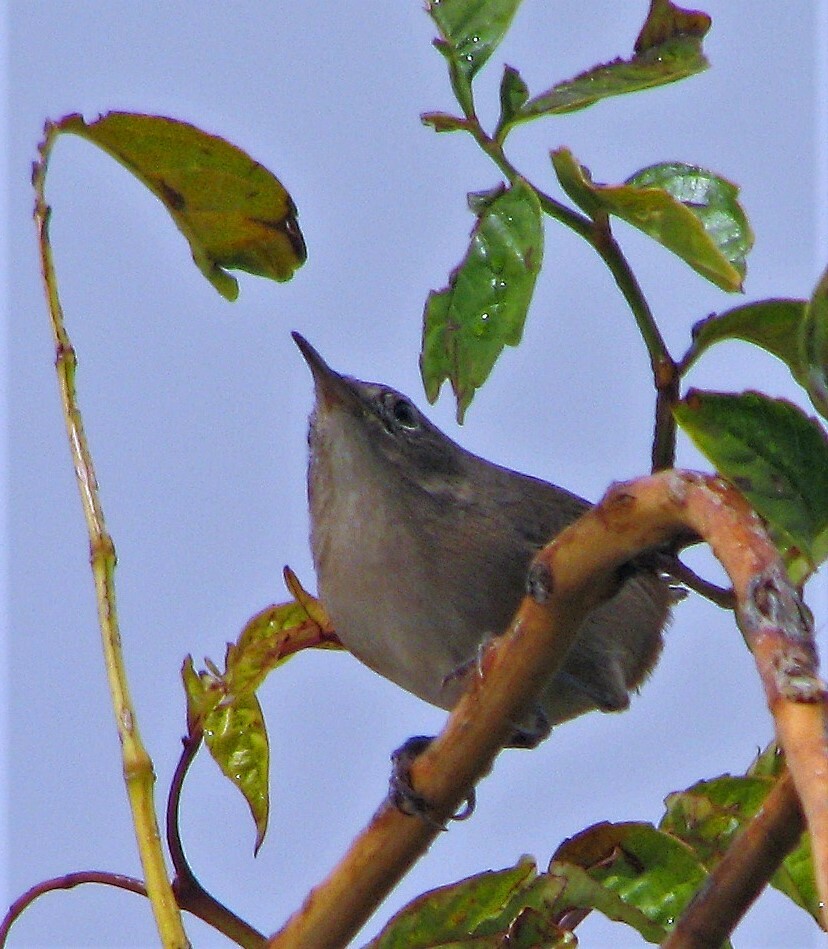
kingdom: Animalia
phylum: Chordata
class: Aves
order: Passeriformes
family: Troglodytidae
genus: Troglodytes
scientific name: Troglodytes aedon
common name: House wren
